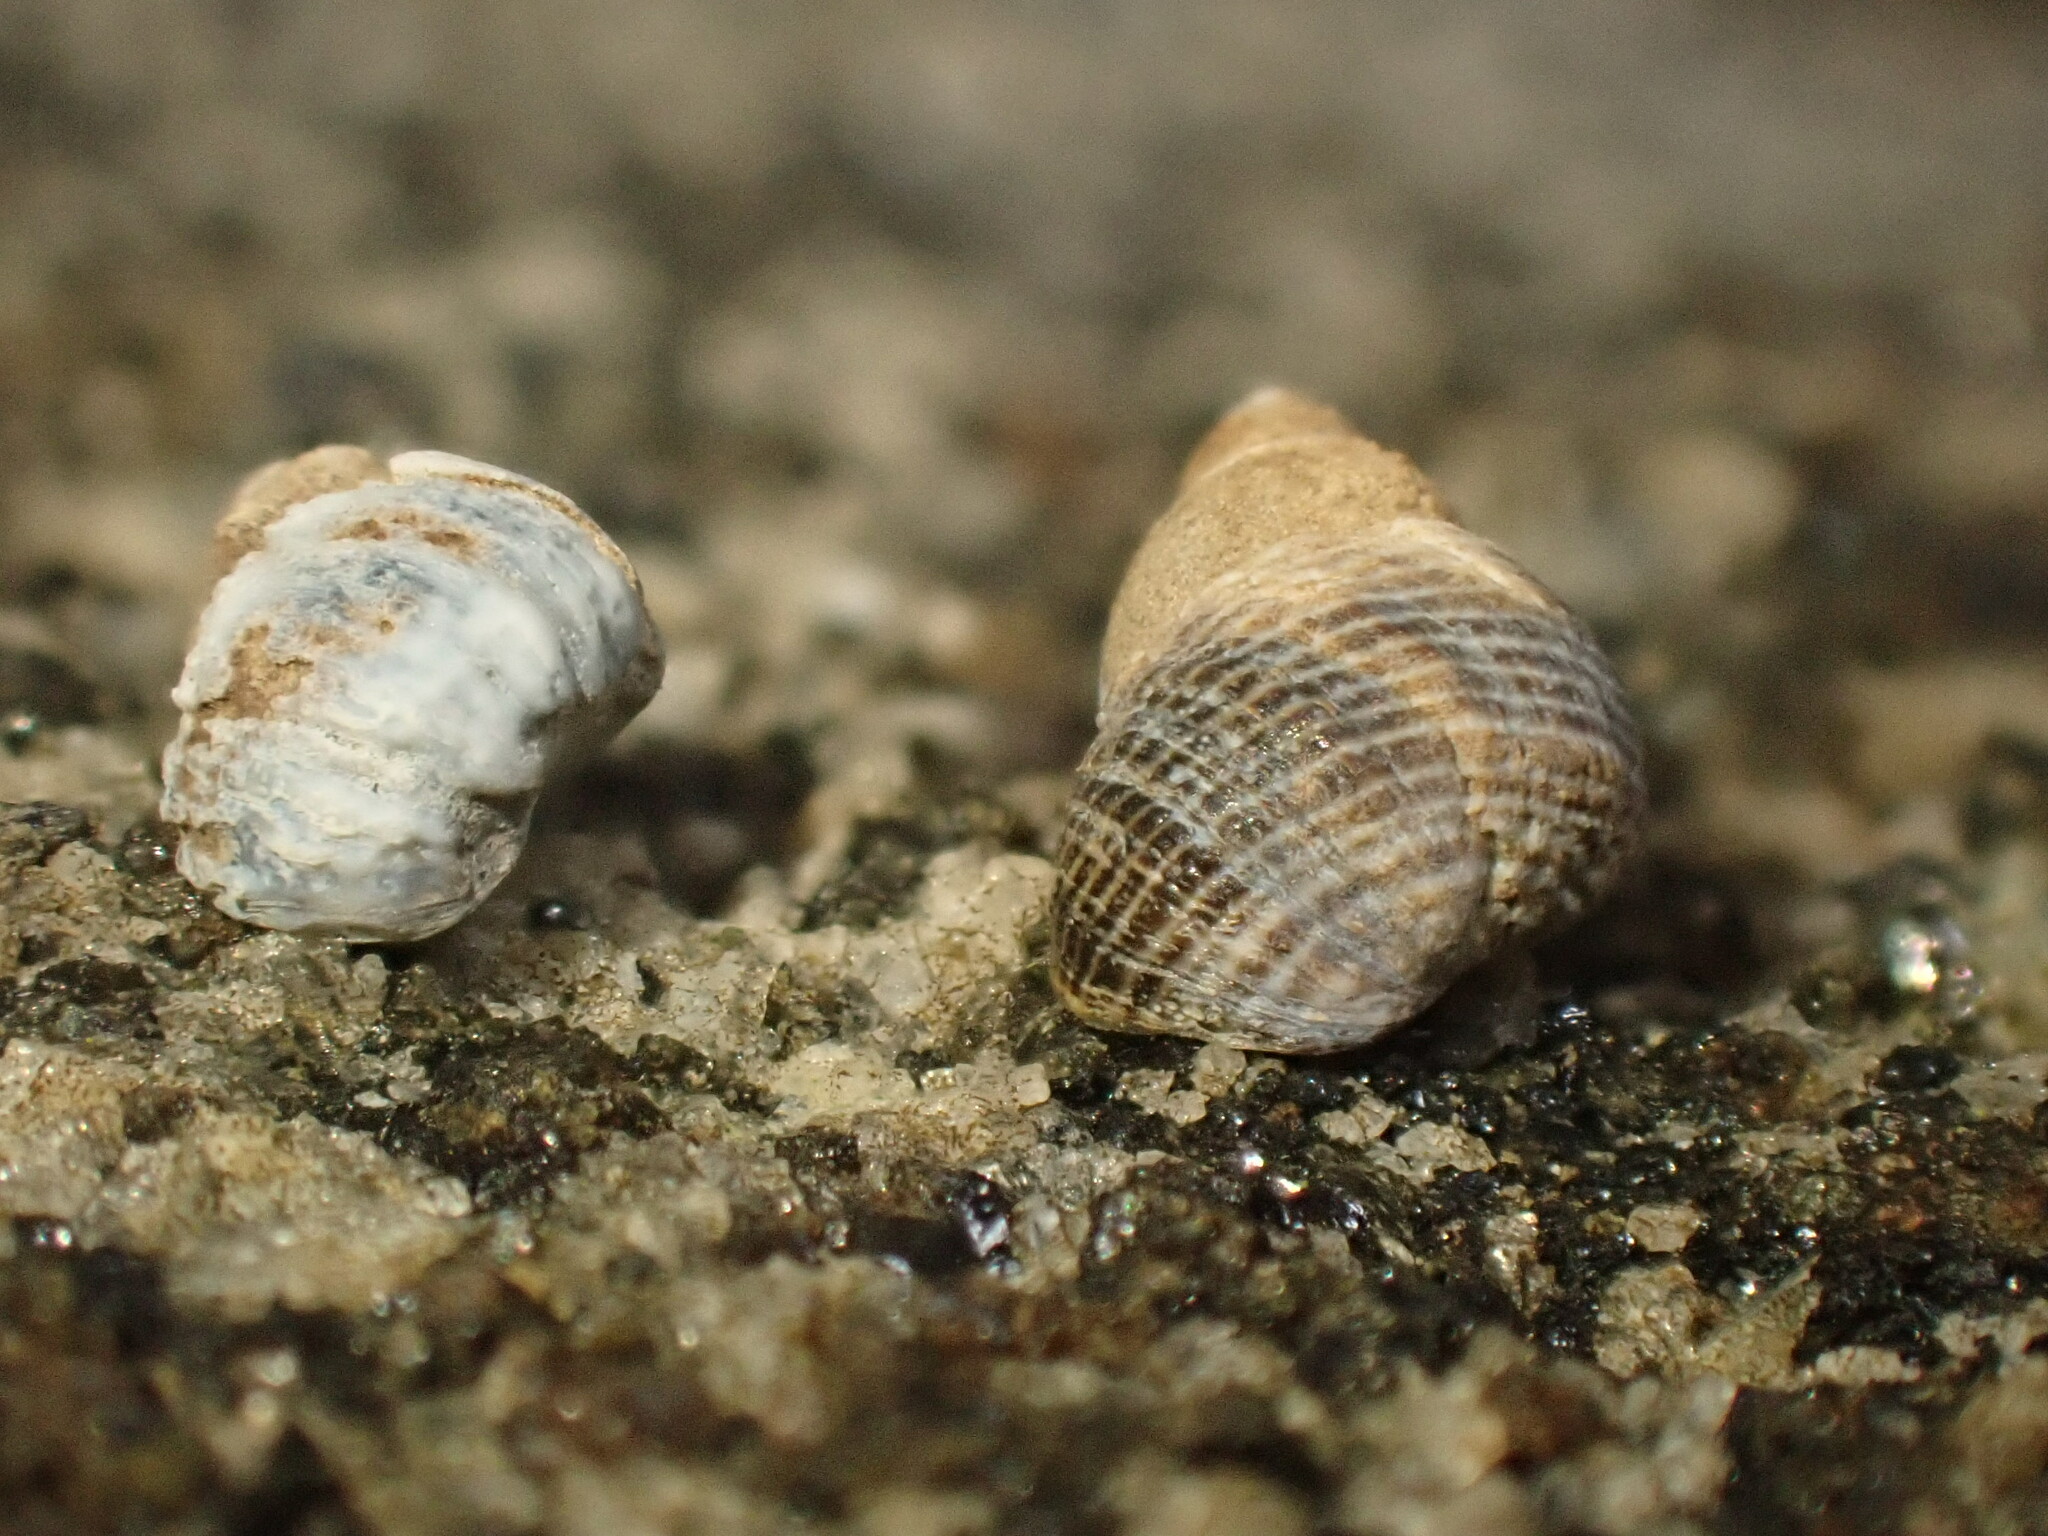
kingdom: Animalia
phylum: Mollusca
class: Gastropoda
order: Littorinimorpha
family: Littorinidae
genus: Austrolittorina
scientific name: Austrolittorina cincta
